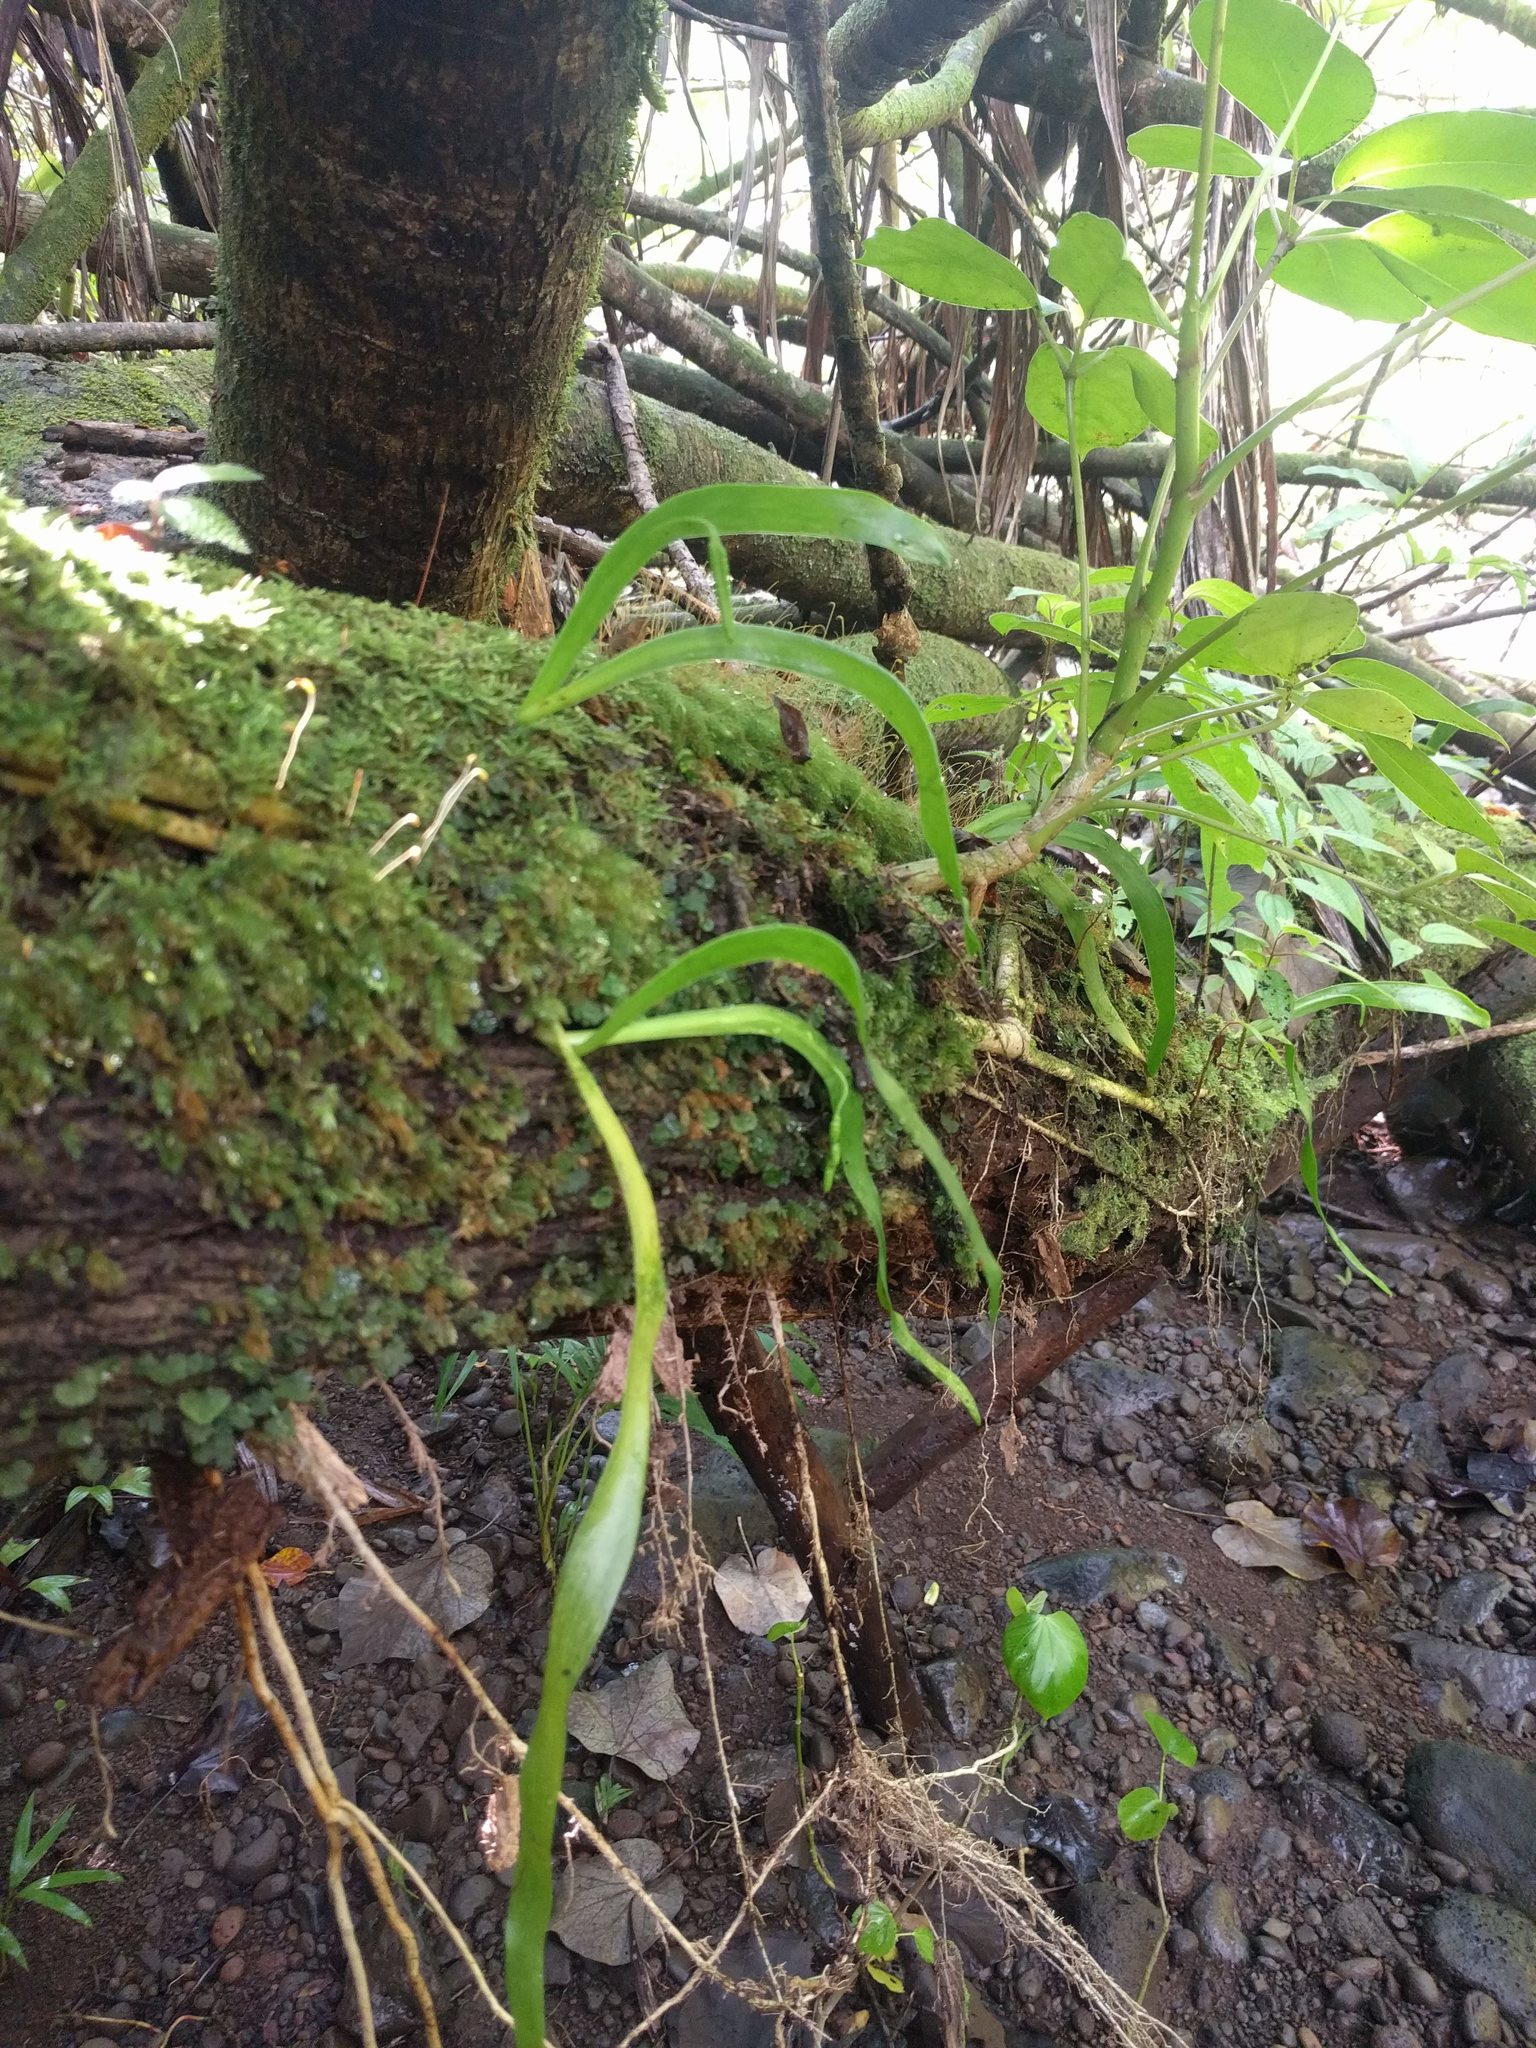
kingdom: Plantae
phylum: Tracheophyta
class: Polypodiopsida
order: Ophioglossales
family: Ophioglossaceae
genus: Ophioderma
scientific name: Ophioderma falcatum
